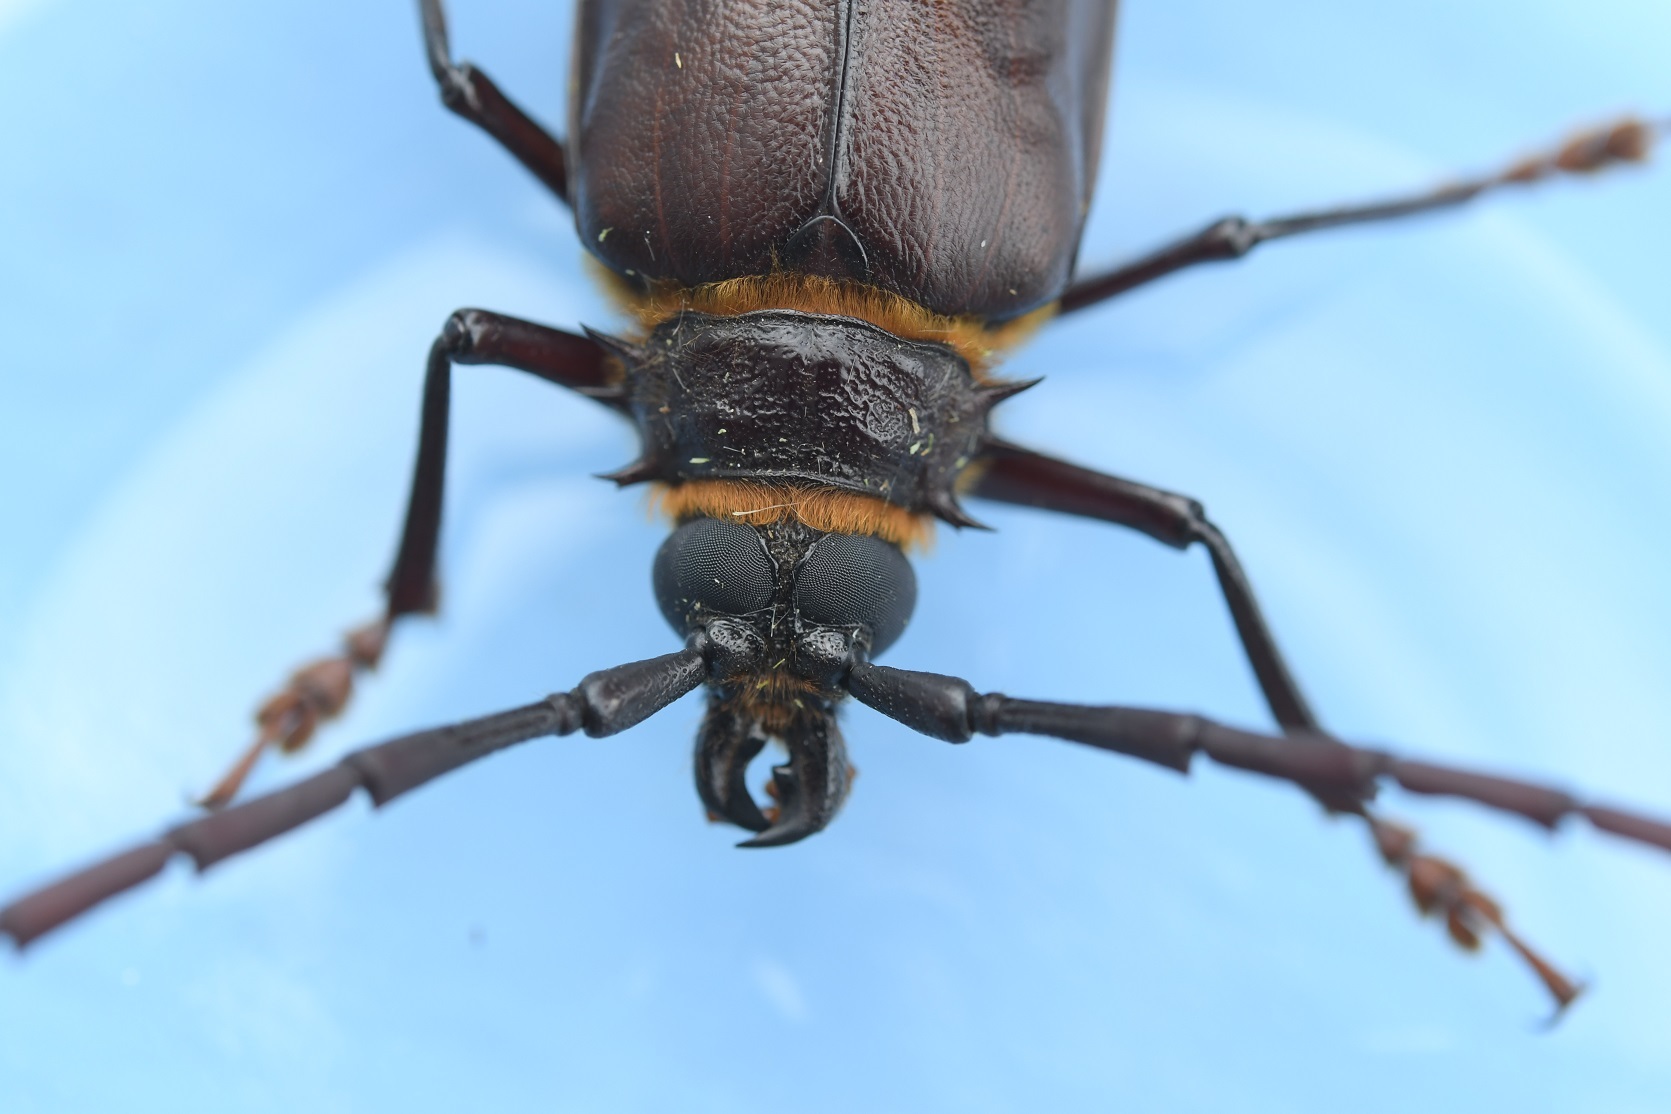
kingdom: Animalia
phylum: Arthropoda
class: Insecta
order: Coleoptera
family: Cerambycidae
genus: Derobrachus
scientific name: Derobrachus dohrni
